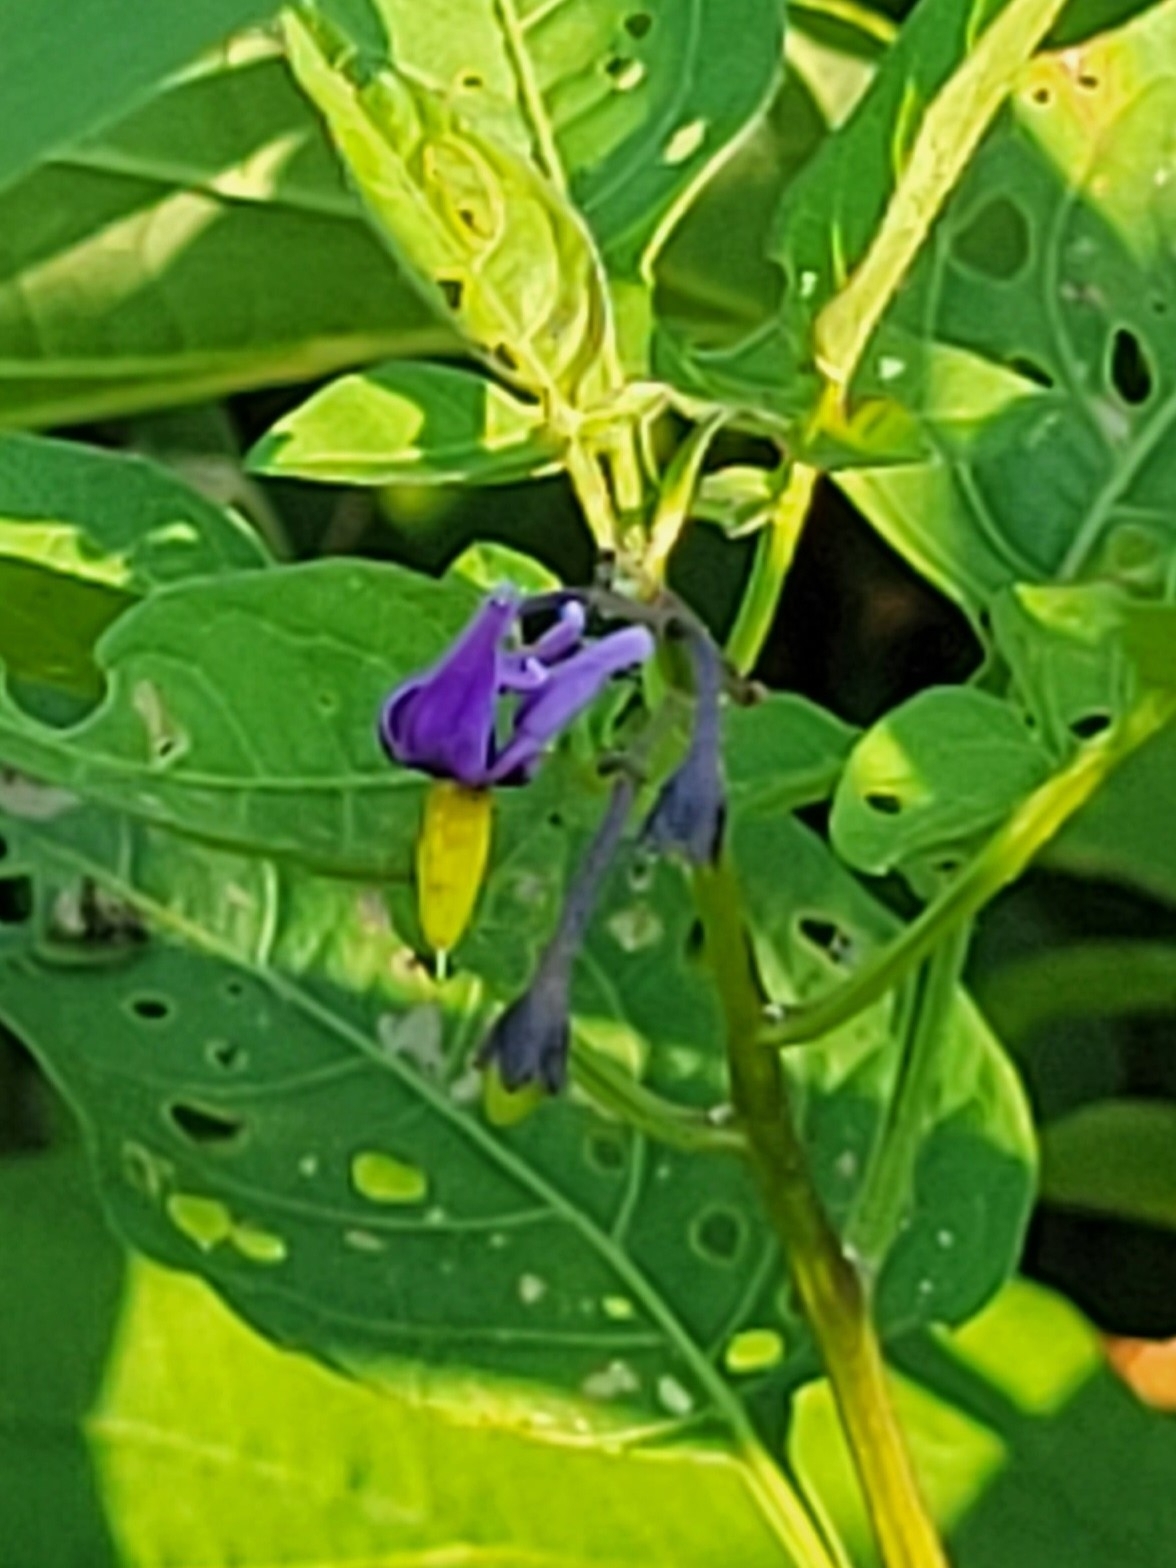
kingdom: Plantae
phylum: Tracheophyta
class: Magnoliopsida
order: Solanales
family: Solanaceae
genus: Solanum
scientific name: Solanum dulcamara
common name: Climbing nightshade
